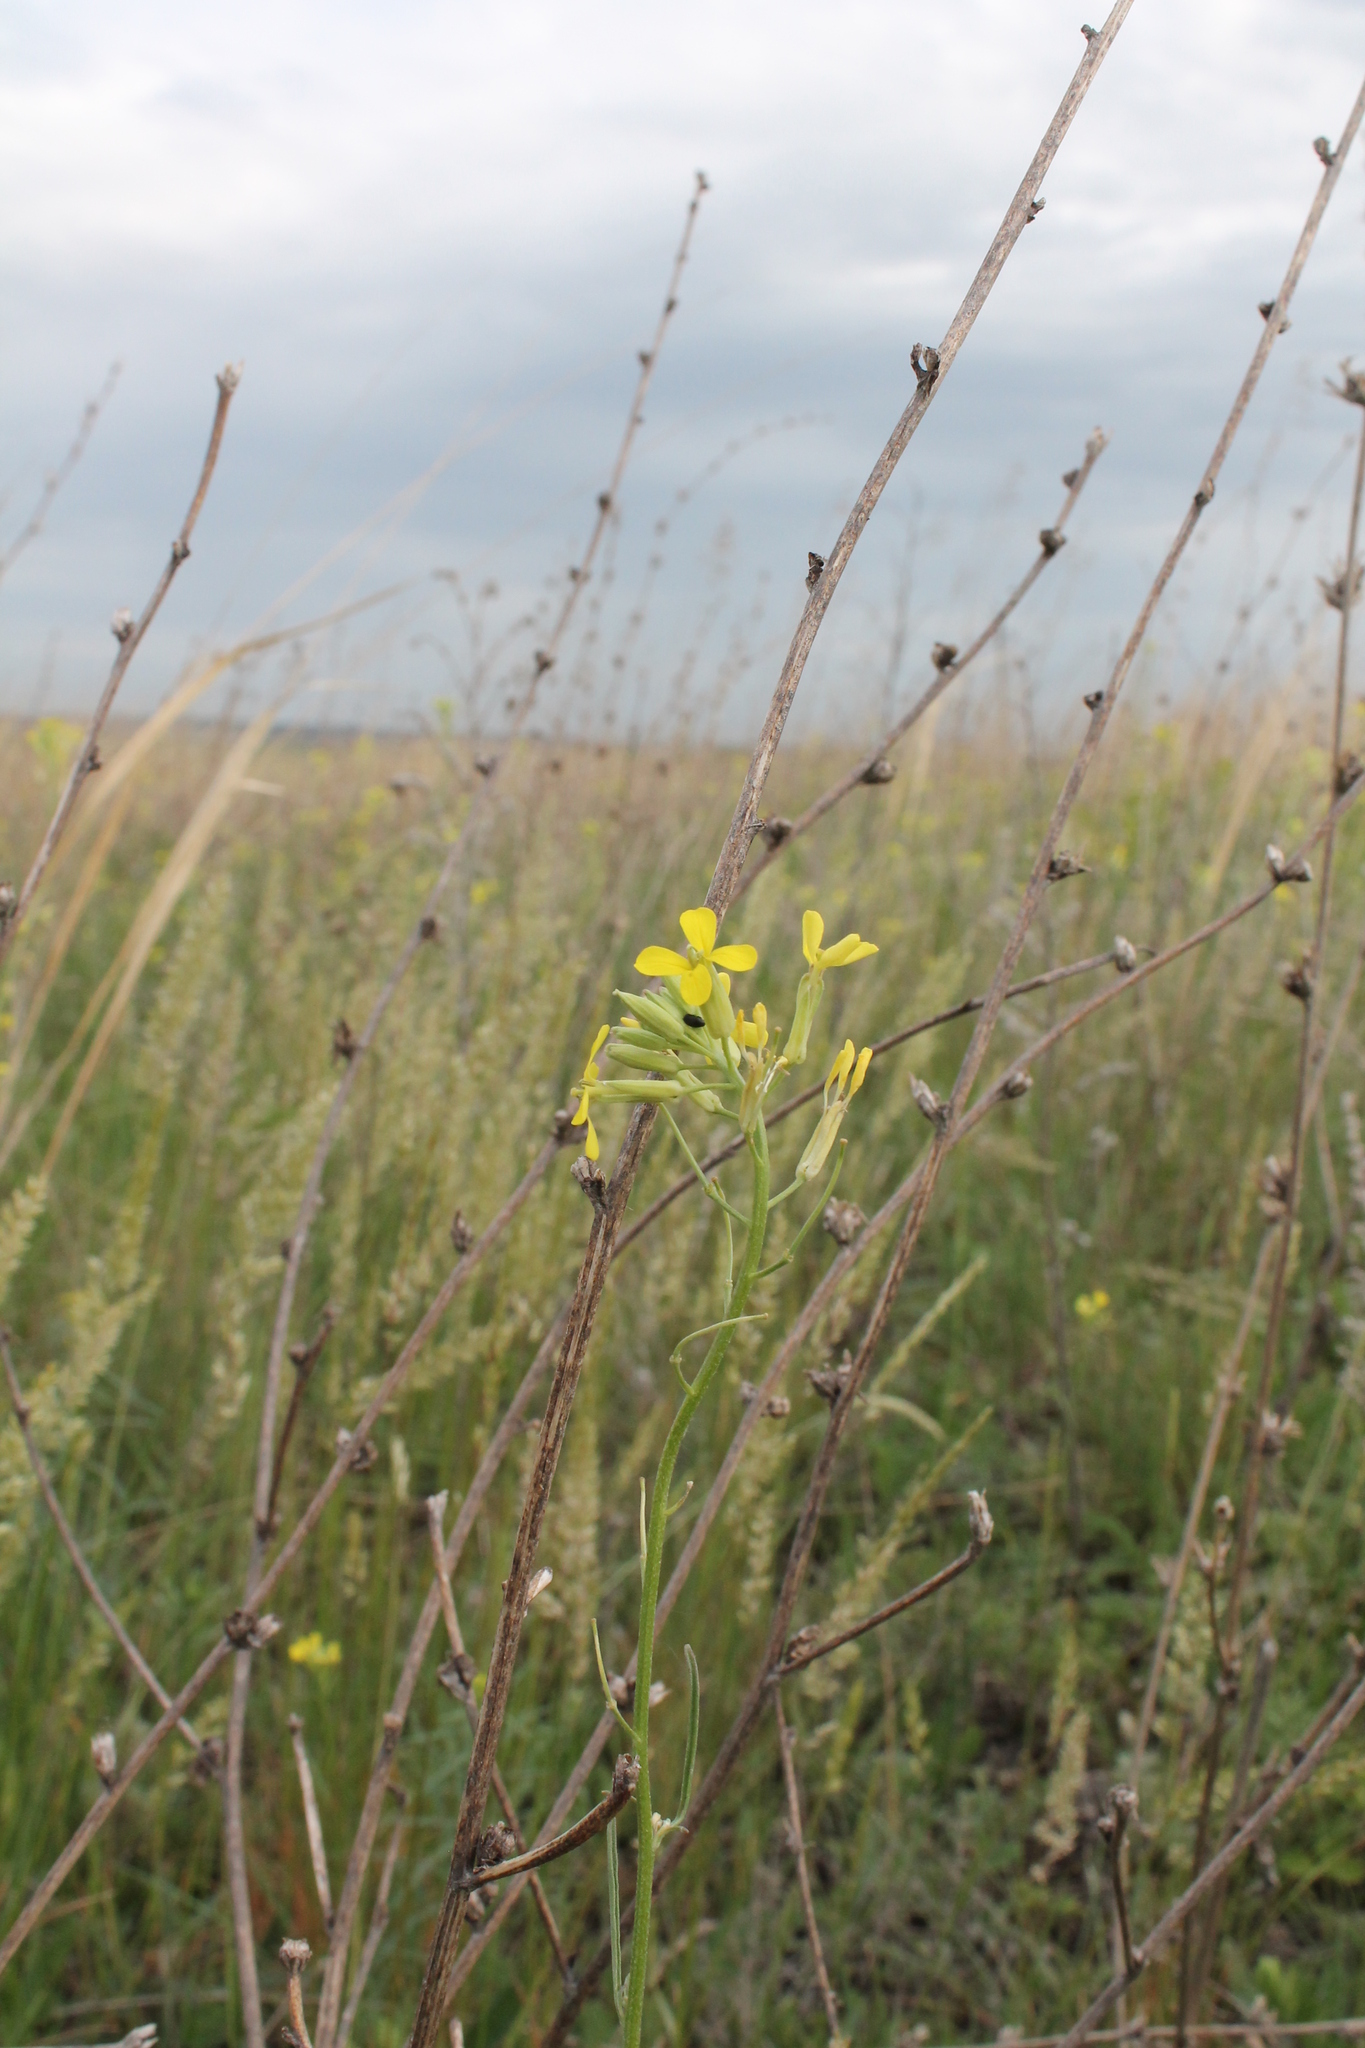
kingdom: Plantae
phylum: Tracheophyta
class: Magnoliopsida
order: Brassicales
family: Brassicaceae
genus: Erysimum
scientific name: Erysimum diffusum
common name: Diffuse wallflower
